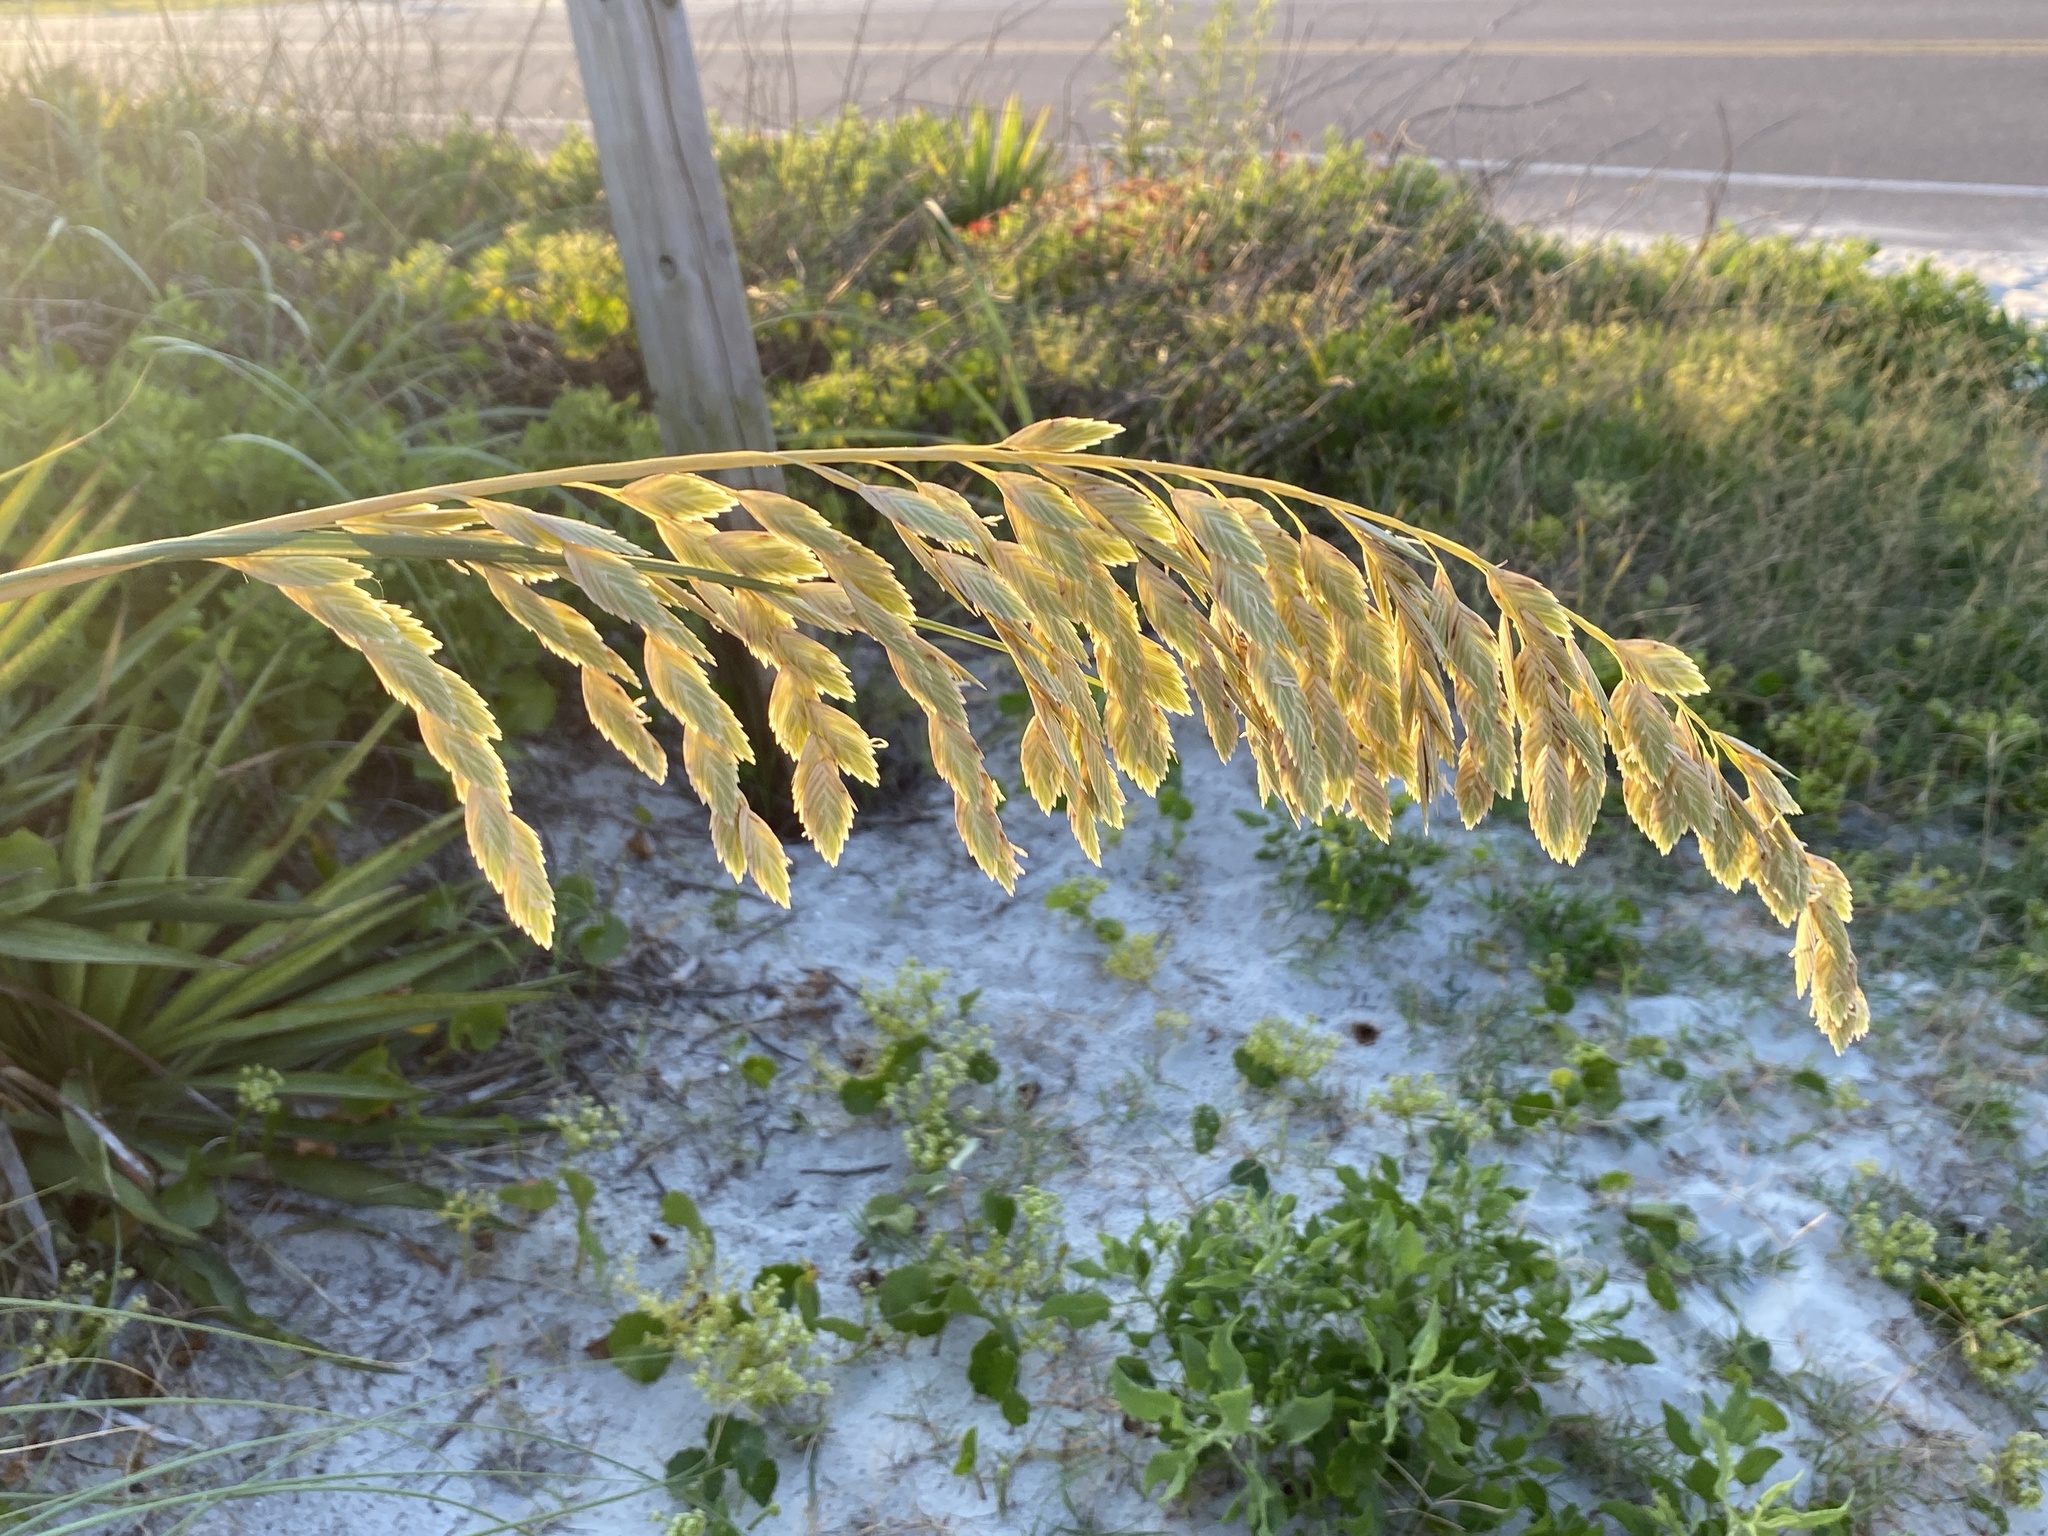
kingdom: Plantae
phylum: Tracheophyta
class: Liliopsida
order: Poales
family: Poaceae
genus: Uniola
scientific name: Uniola paniculata
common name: Seaside-oats
